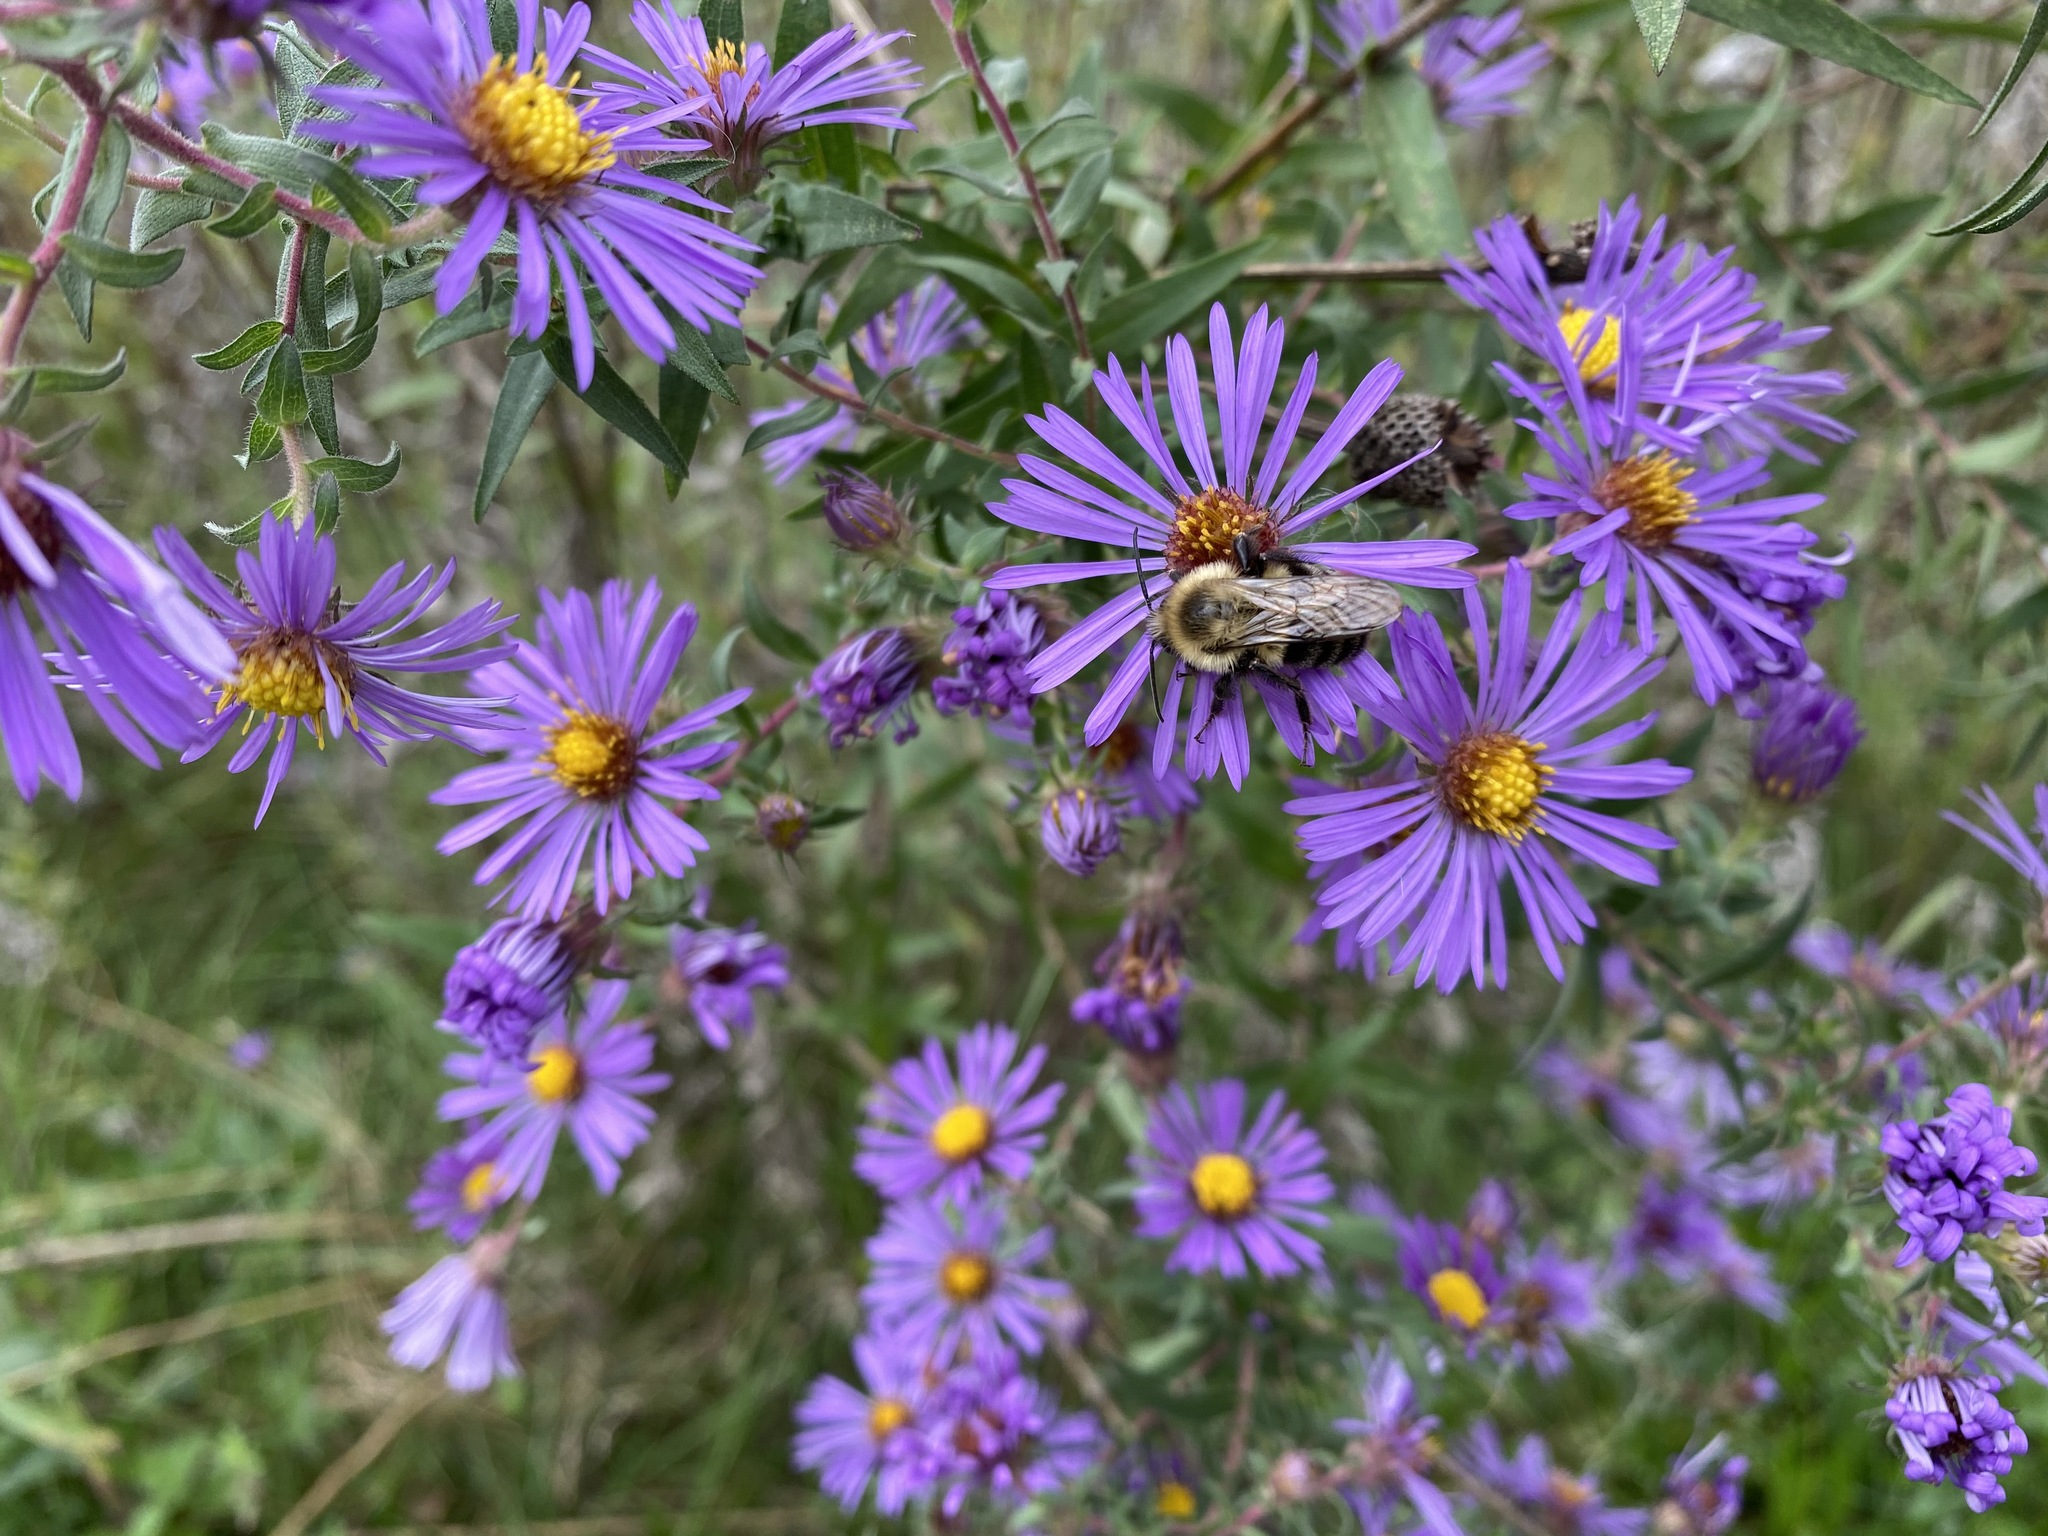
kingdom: Animalia
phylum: Arthropoda
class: Insecta
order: Hymenoptera
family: Apidae
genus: Bombus
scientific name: Bombus impatiens
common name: Common eastern bumble bee
